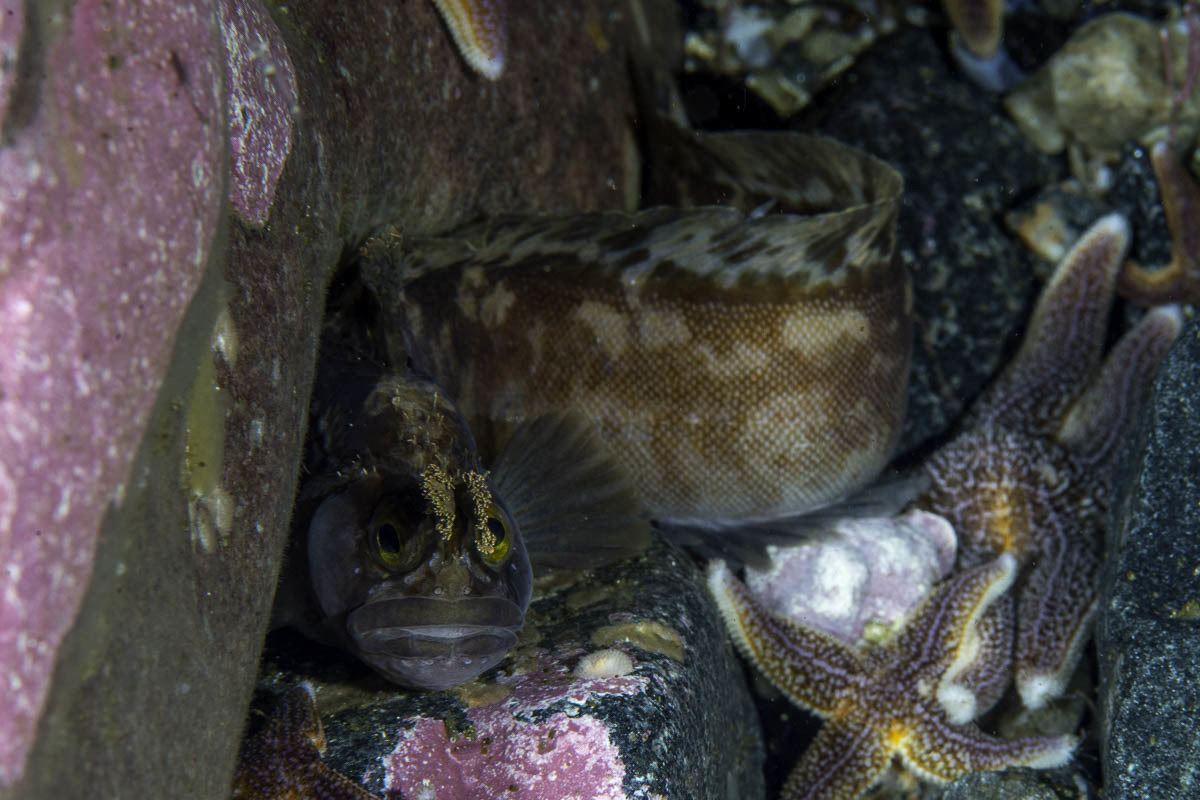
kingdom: Animalia
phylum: Chordata
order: Perciformes
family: Stichaeidae
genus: Chirolophis
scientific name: Chirolophis ascanii
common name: Yarrell's blenny
